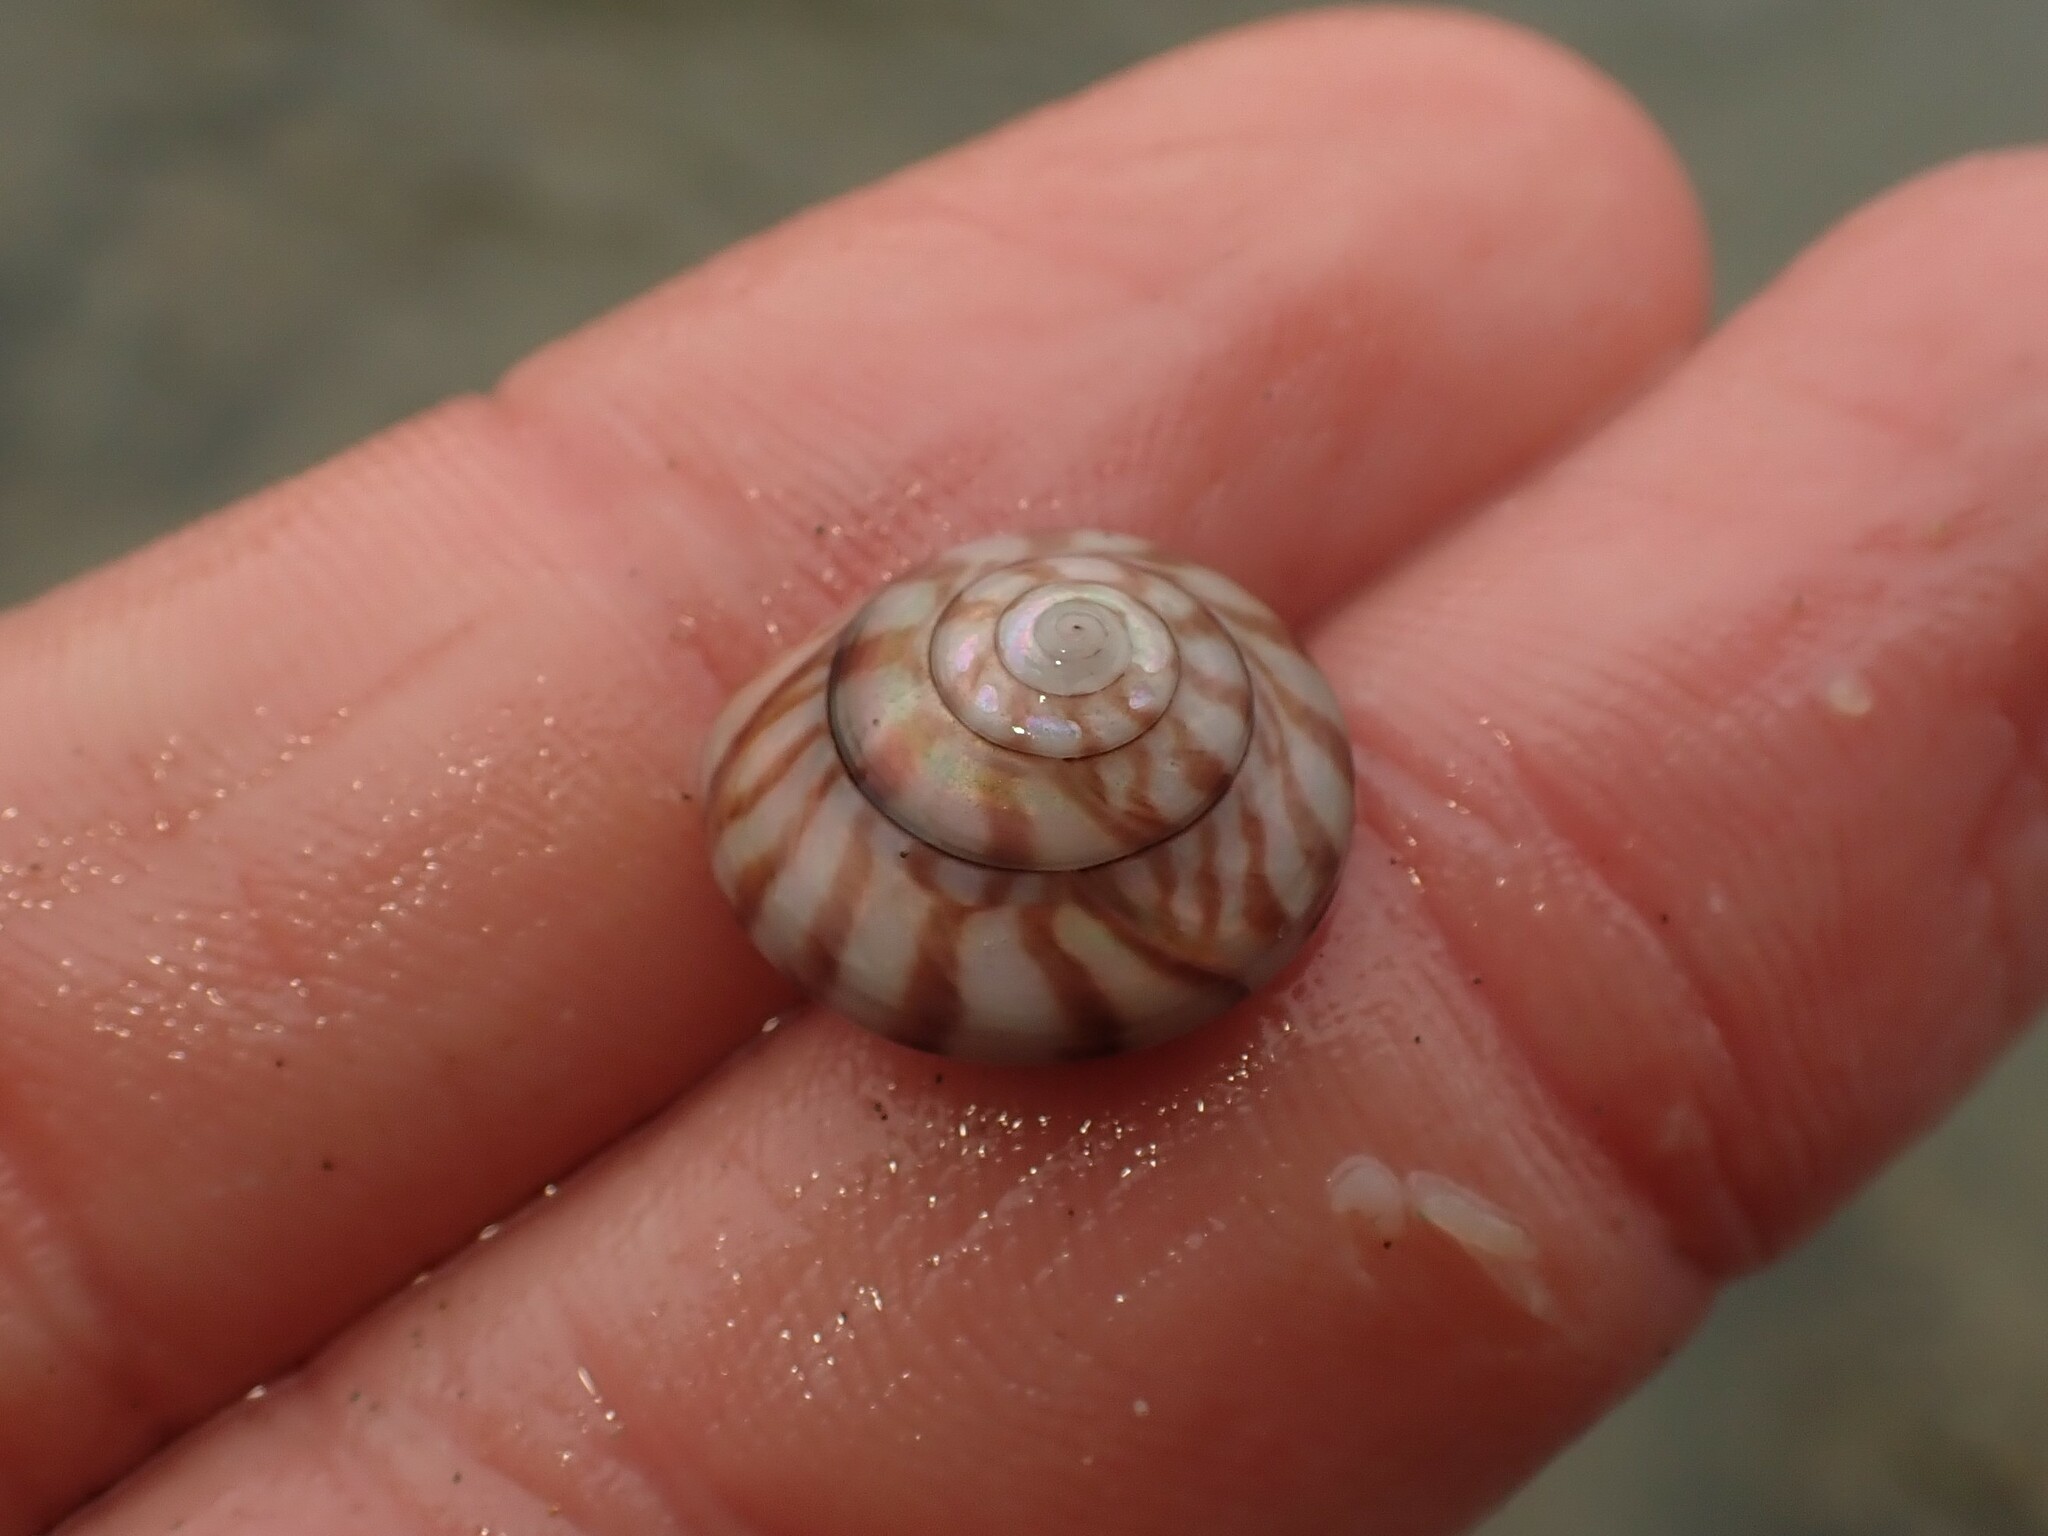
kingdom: Animalia
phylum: Mollusca
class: Gastropoda
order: Trochida
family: Trochidae
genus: Zethalia
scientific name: Zethalia zelandica
